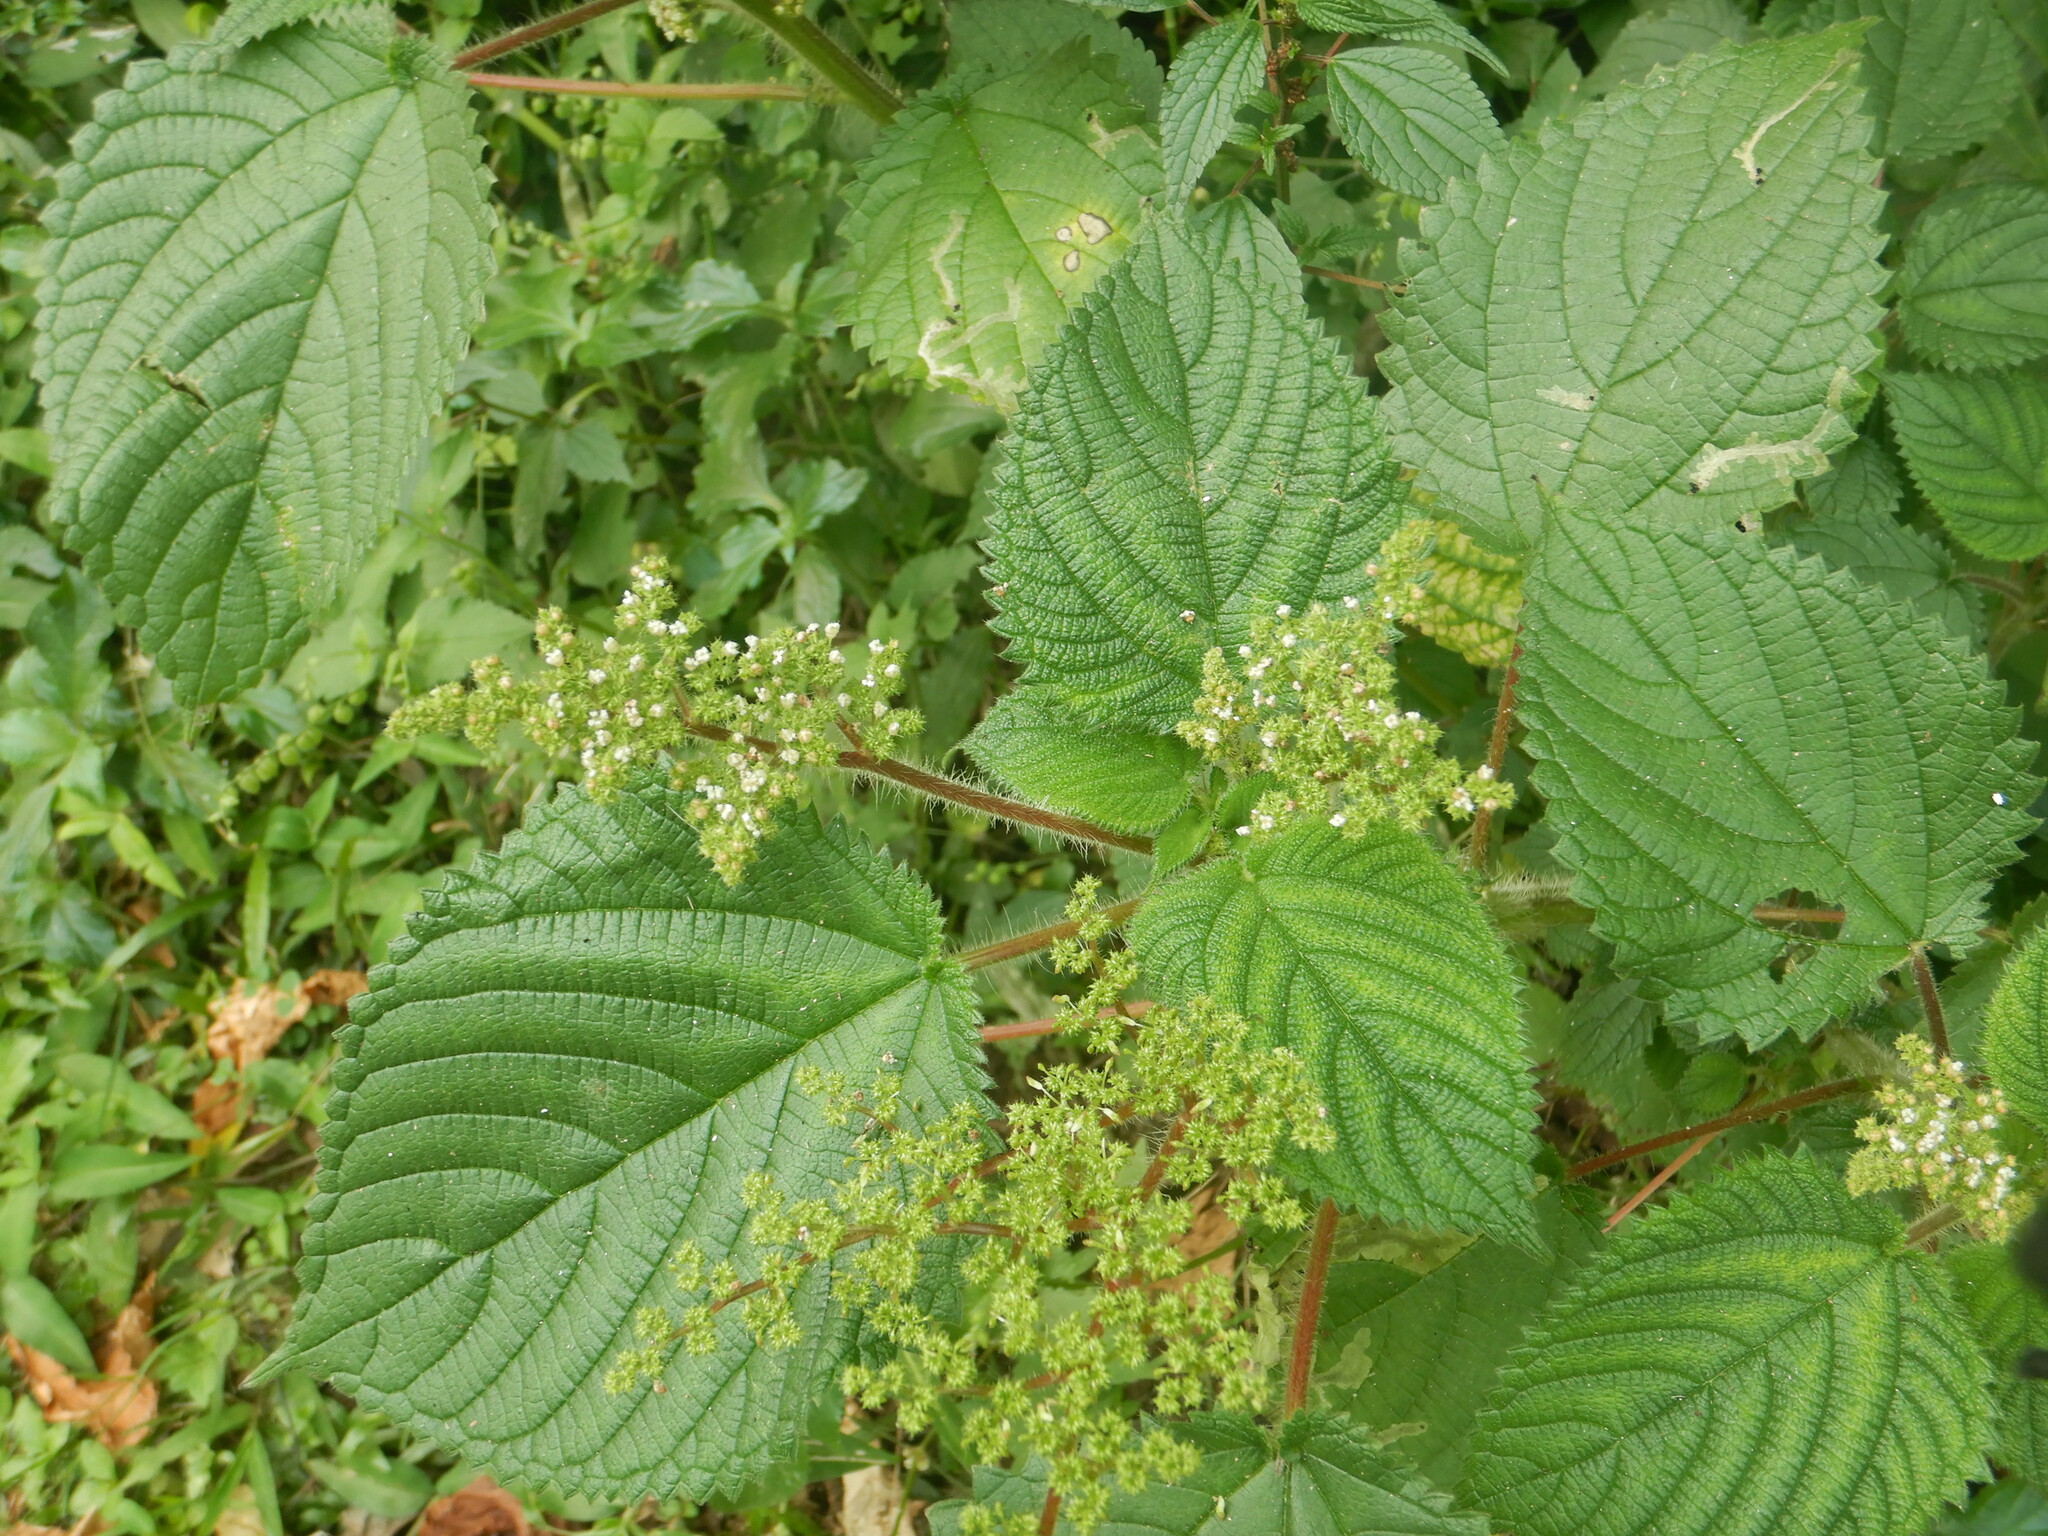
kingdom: Plantae
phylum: Tracheophyta
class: Magnoliopsida
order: Rosales
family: Urticaceae
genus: Laportea
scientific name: Laportea aestuans
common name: West indian woodnettle
